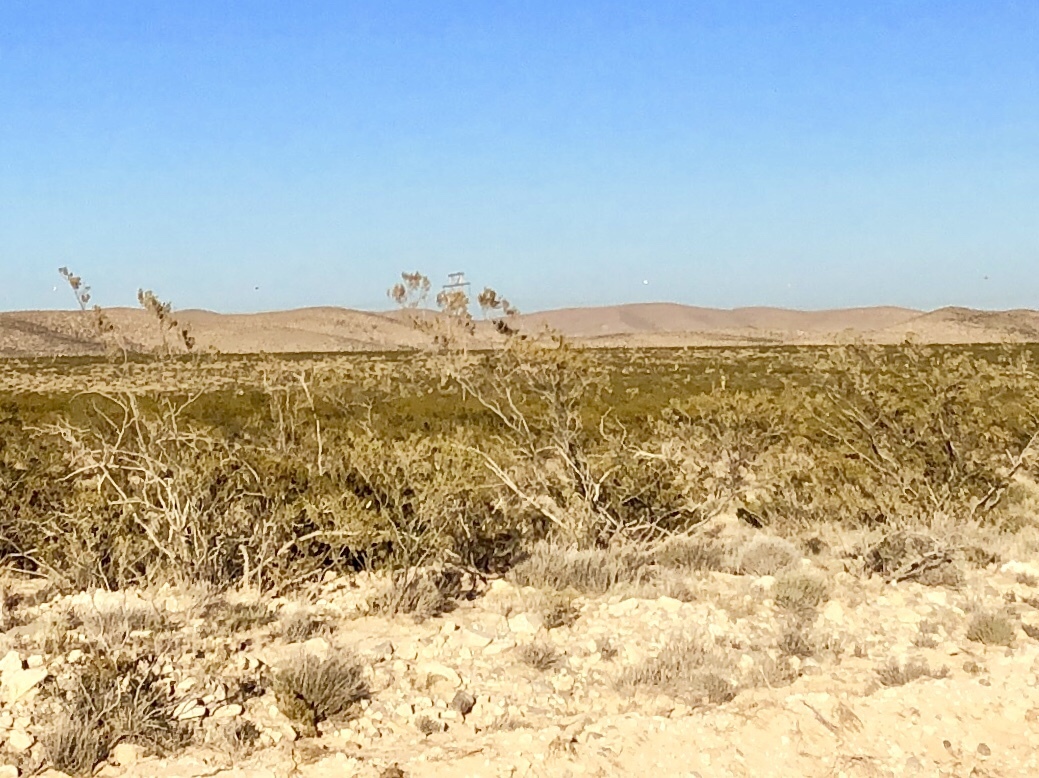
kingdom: Plantae
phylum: Tracheophyta
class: Magnoliopsida
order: Zygophyllales
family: Zygophyllaceae
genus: Larrea
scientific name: Larrea tridentata
